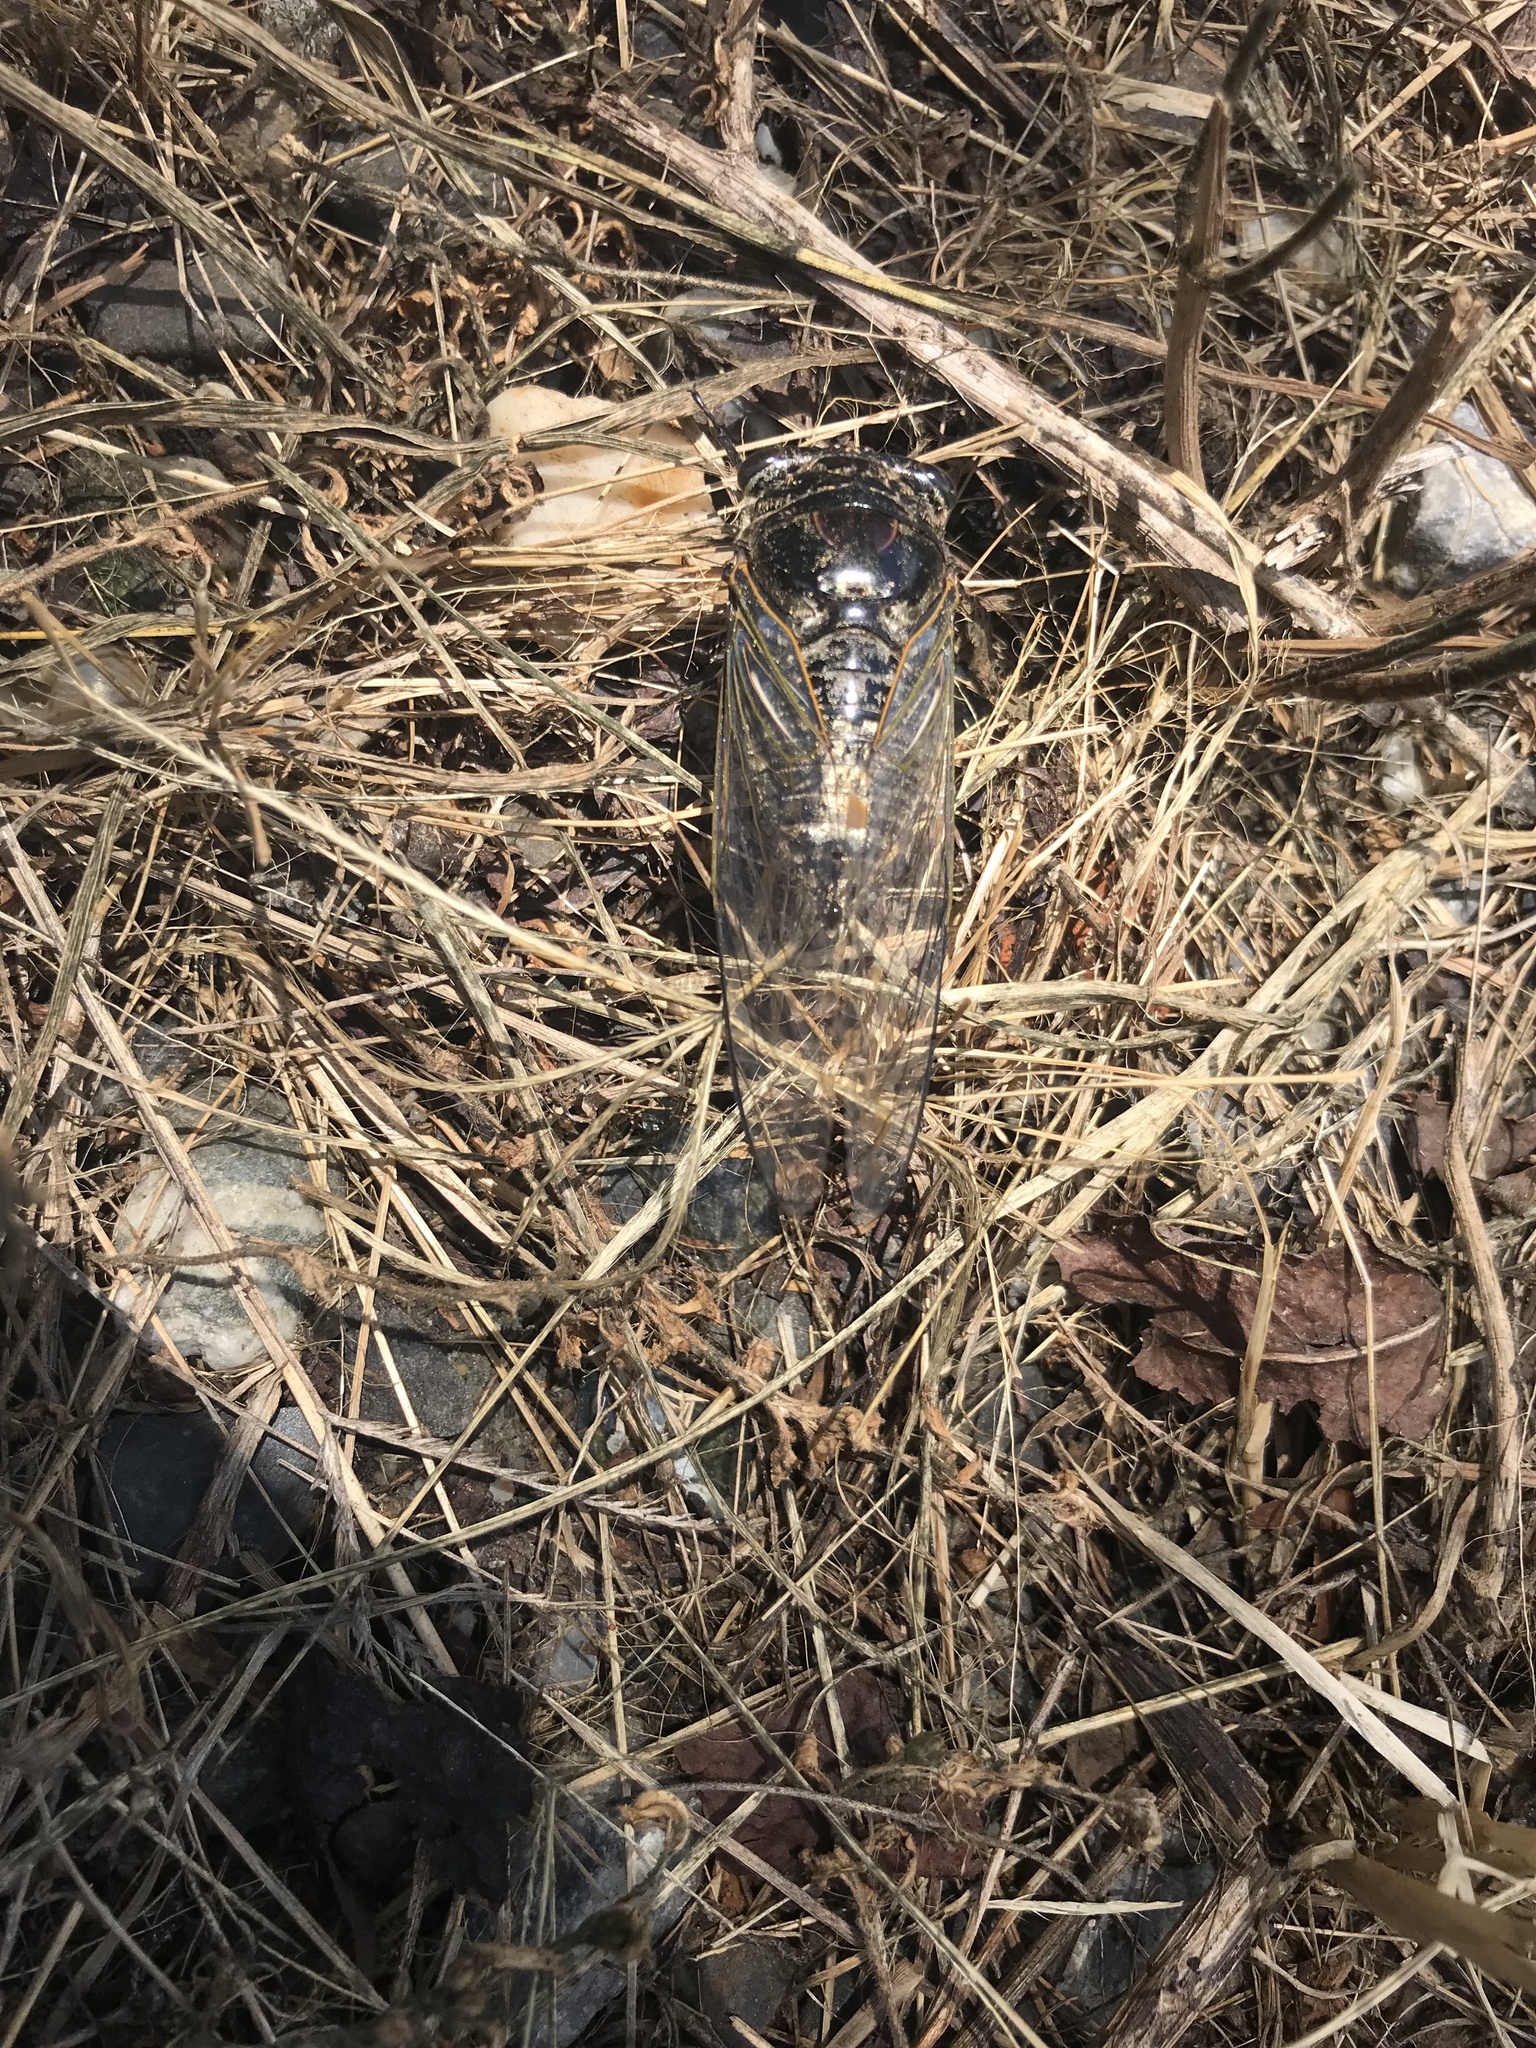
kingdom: Animalia
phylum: Arthropoda
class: Insecta
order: Hemiptera
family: Cicadidae
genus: Cryptotympana
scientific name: Cryptotympana takasagona
